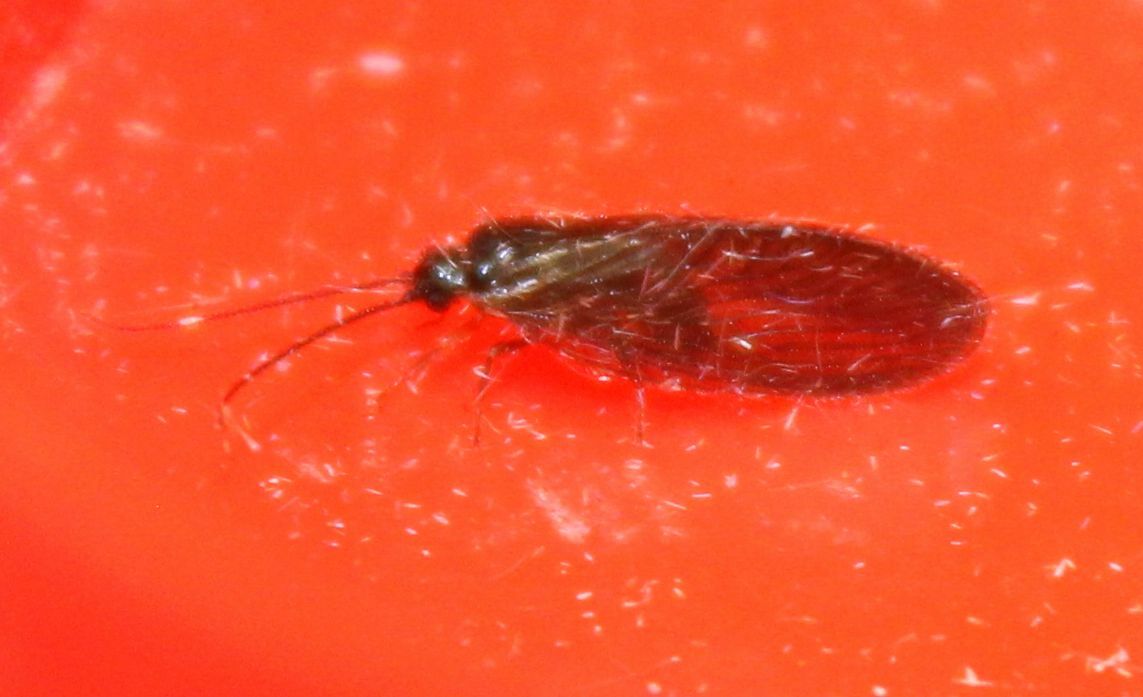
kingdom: Animalia
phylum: Arthropoda
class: Insecta
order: Neuroptera
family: Sisyridae
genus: Sisyra
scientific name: Sisyra nigra
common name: Black spongillafly
